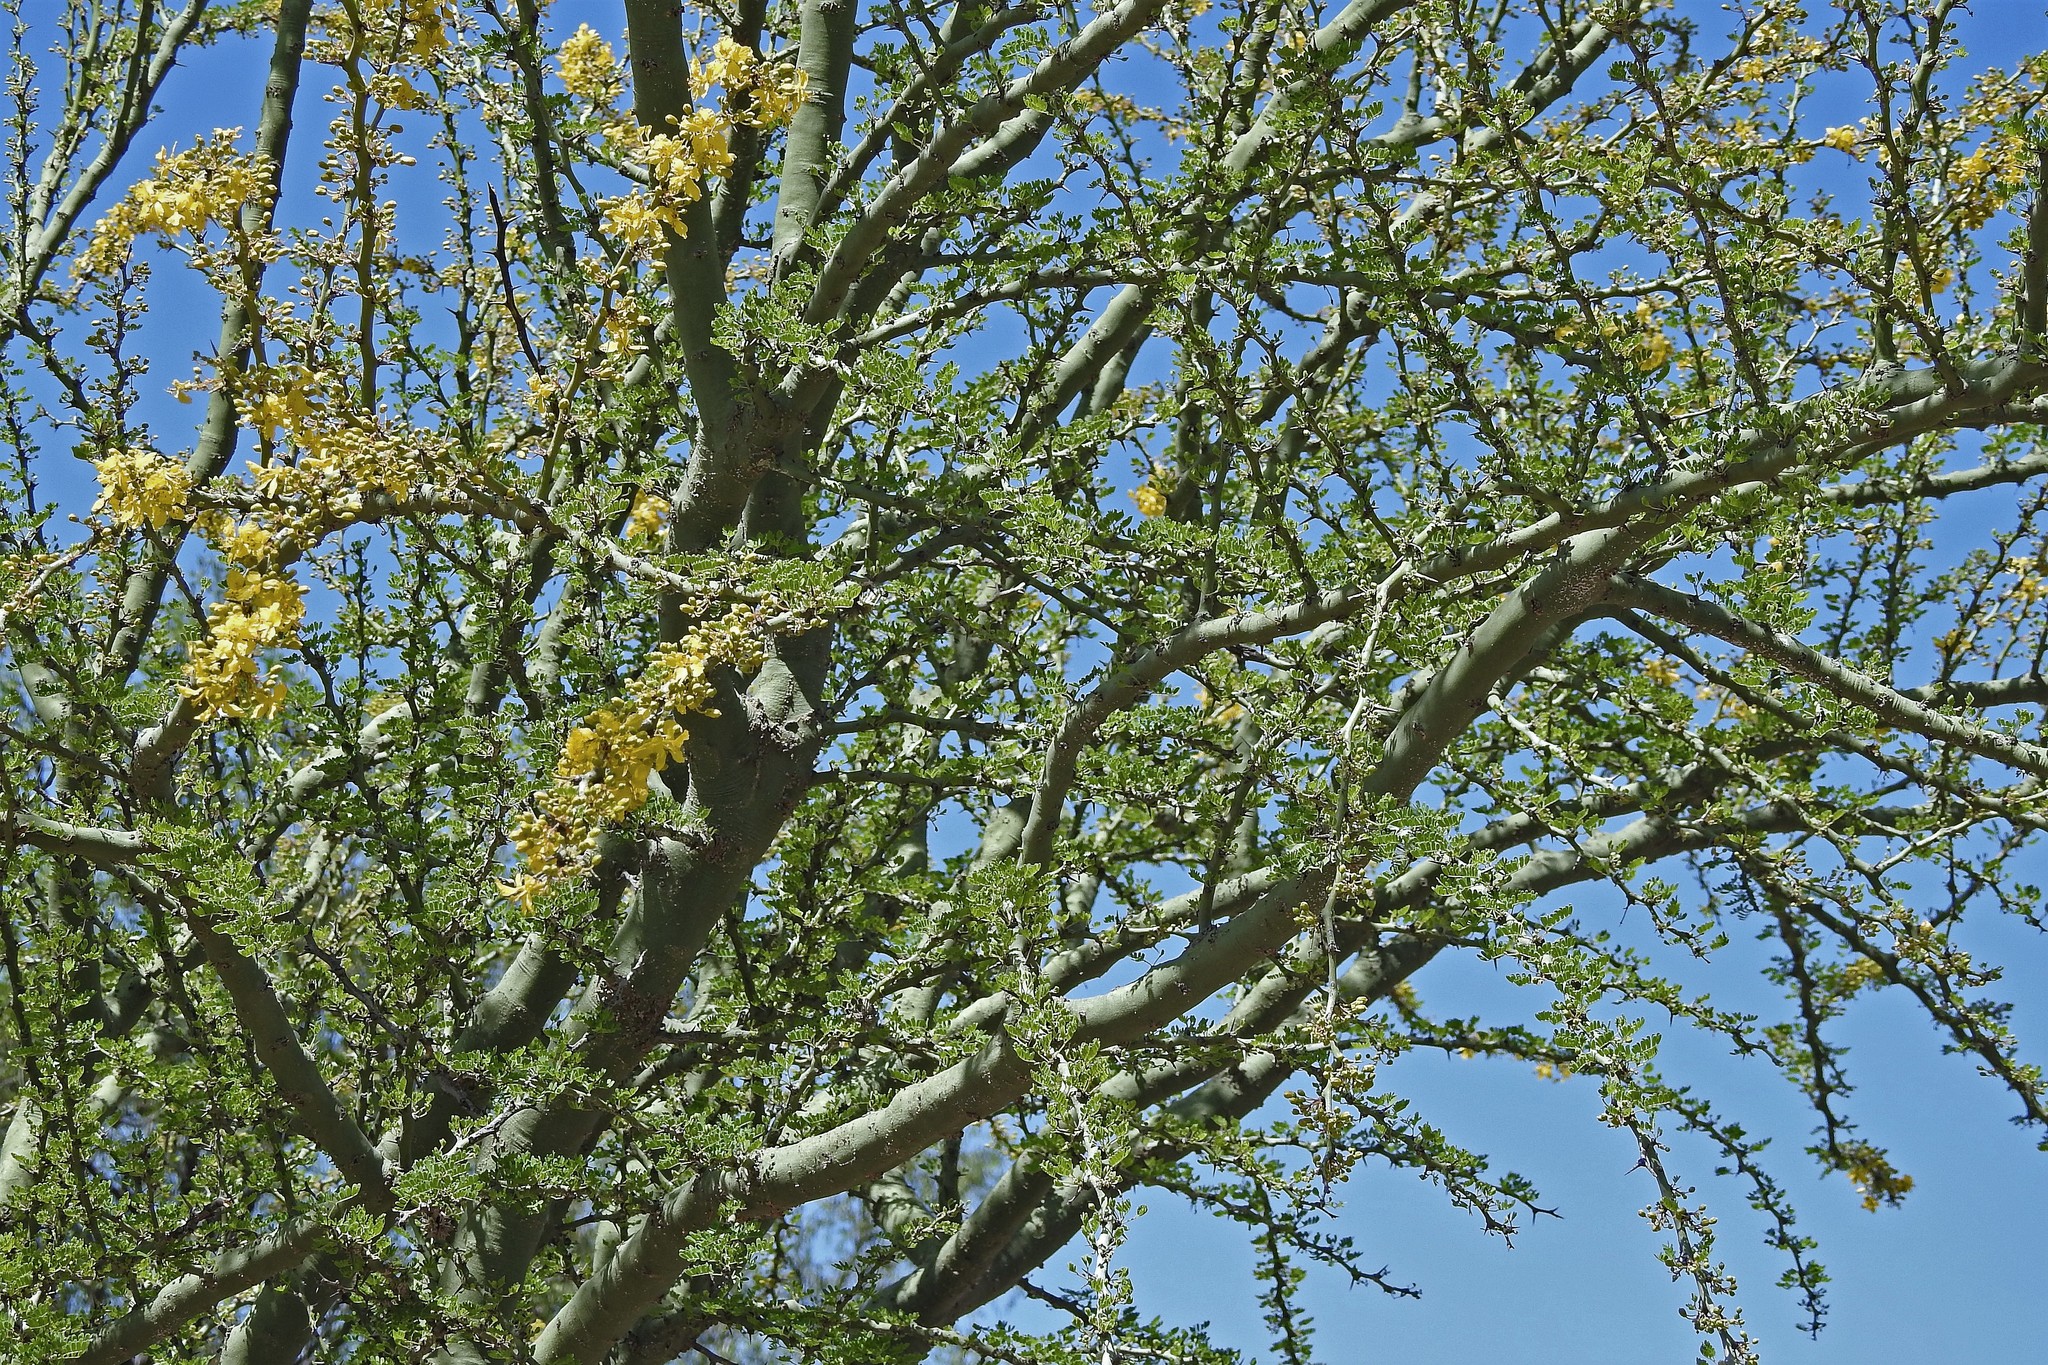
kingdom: Plantae
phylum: Tracheophyta
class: Magnoliopsida
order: Fabales
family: Fabaceae
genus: Parkinsonia
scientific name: Parkinsonia praecox
